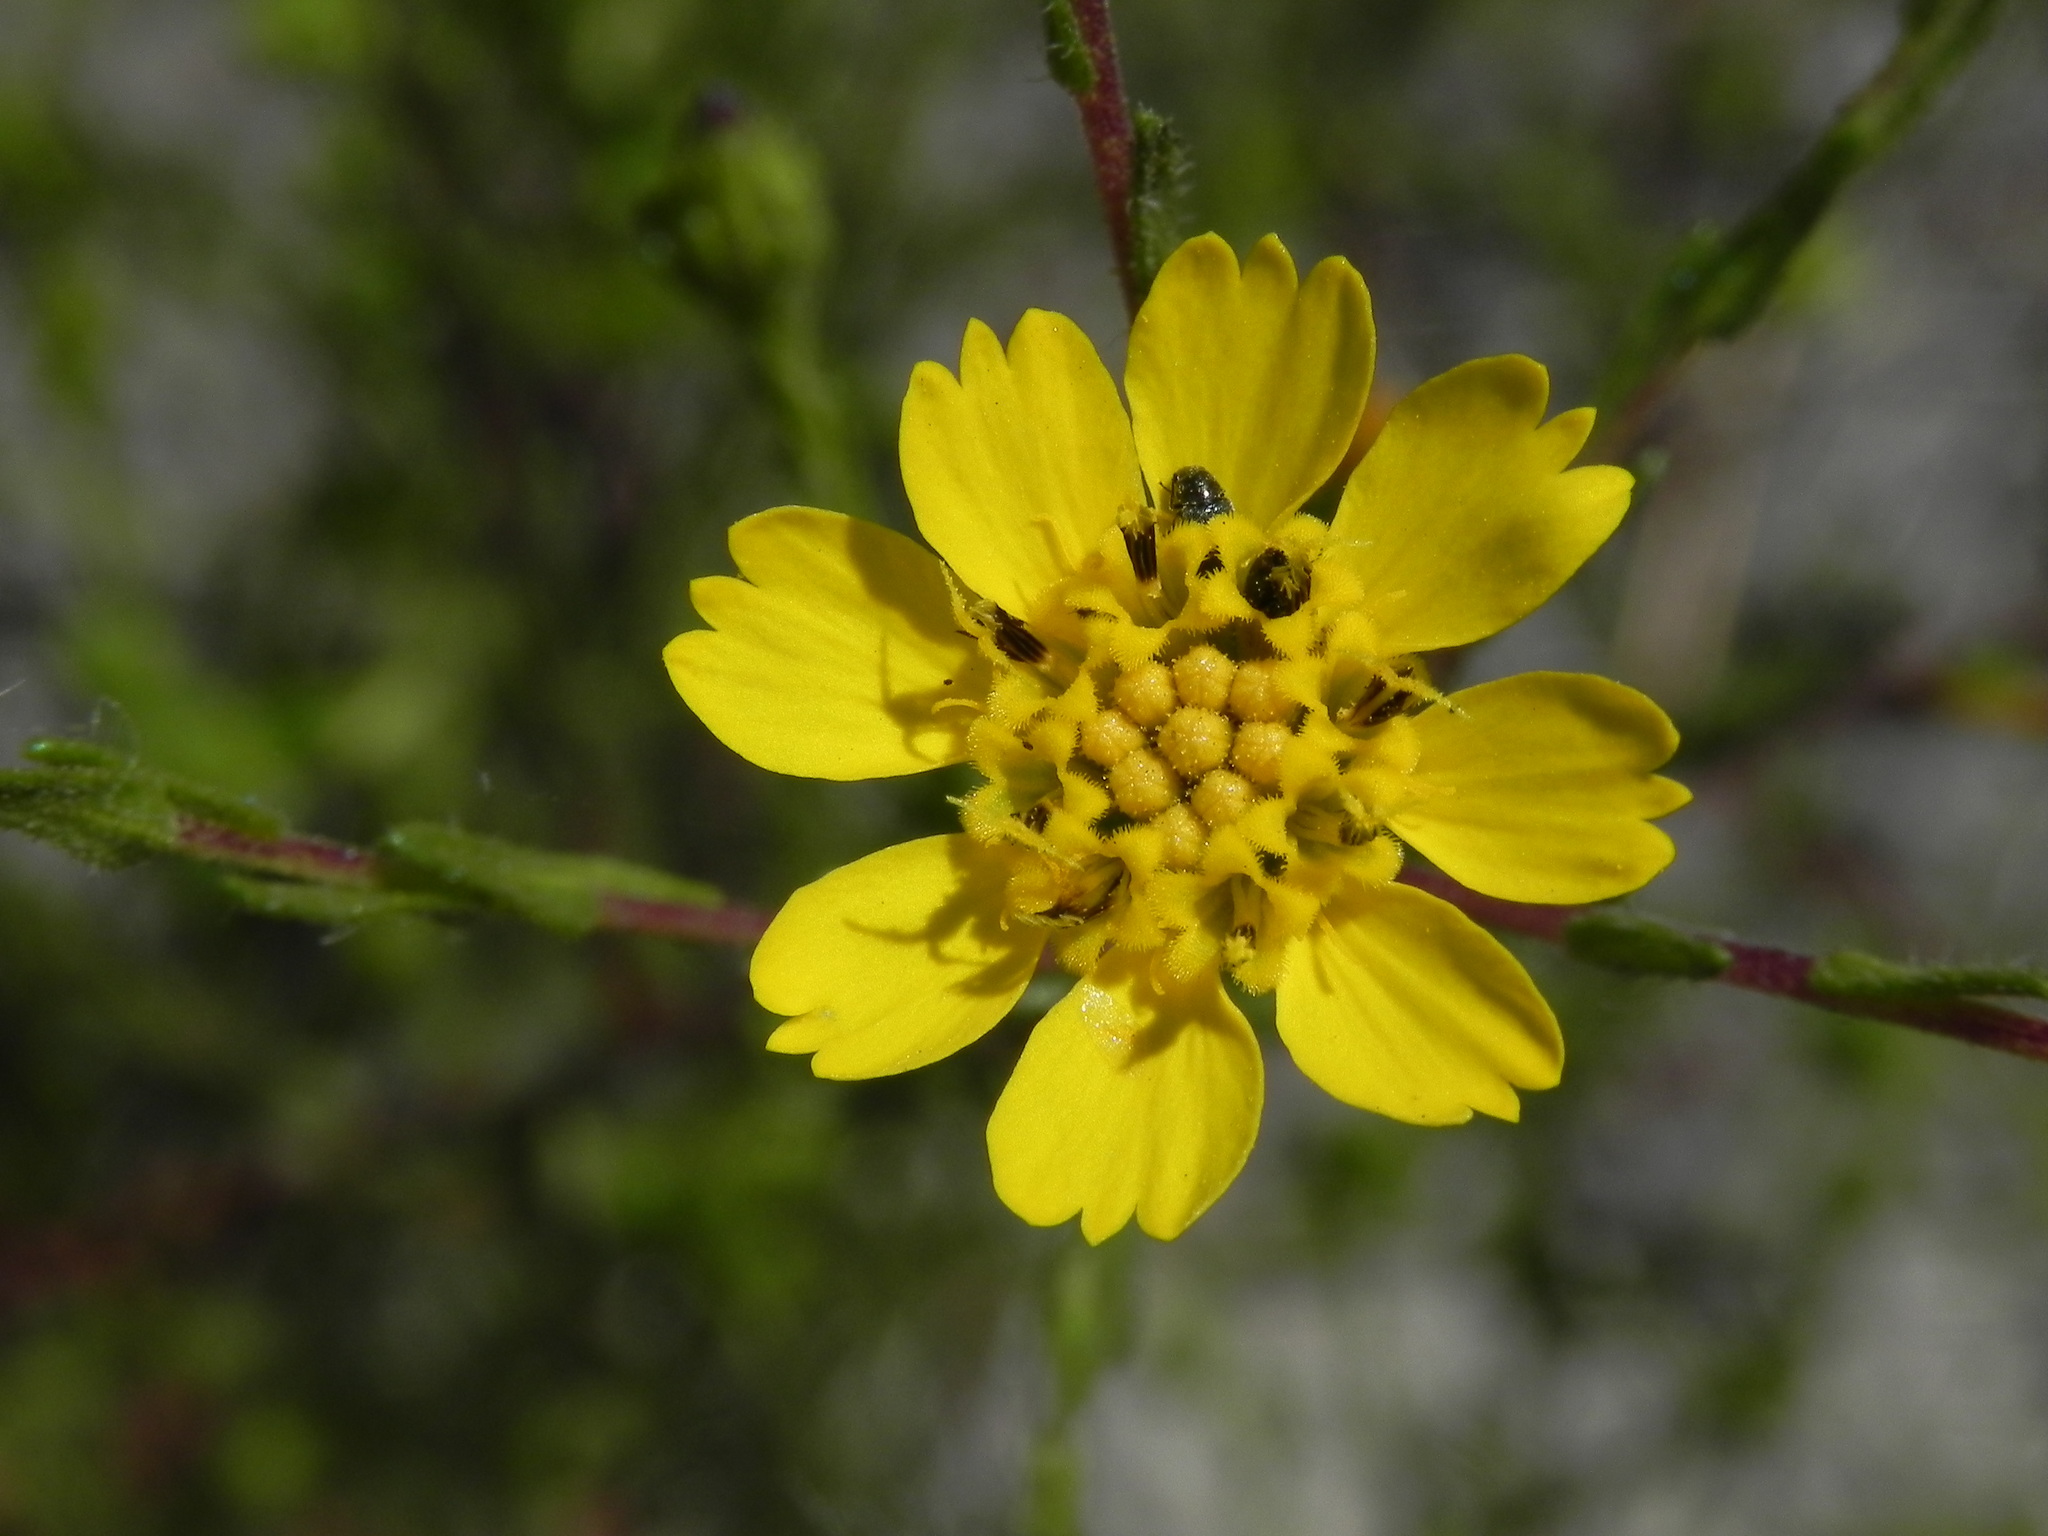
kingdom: Plantae
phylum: Tracheophyta
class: Magnoliopsida
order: Asterales
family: Asteraceae
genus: Deinandra
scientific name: Deinandra conjugens
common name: Otay tarplant
